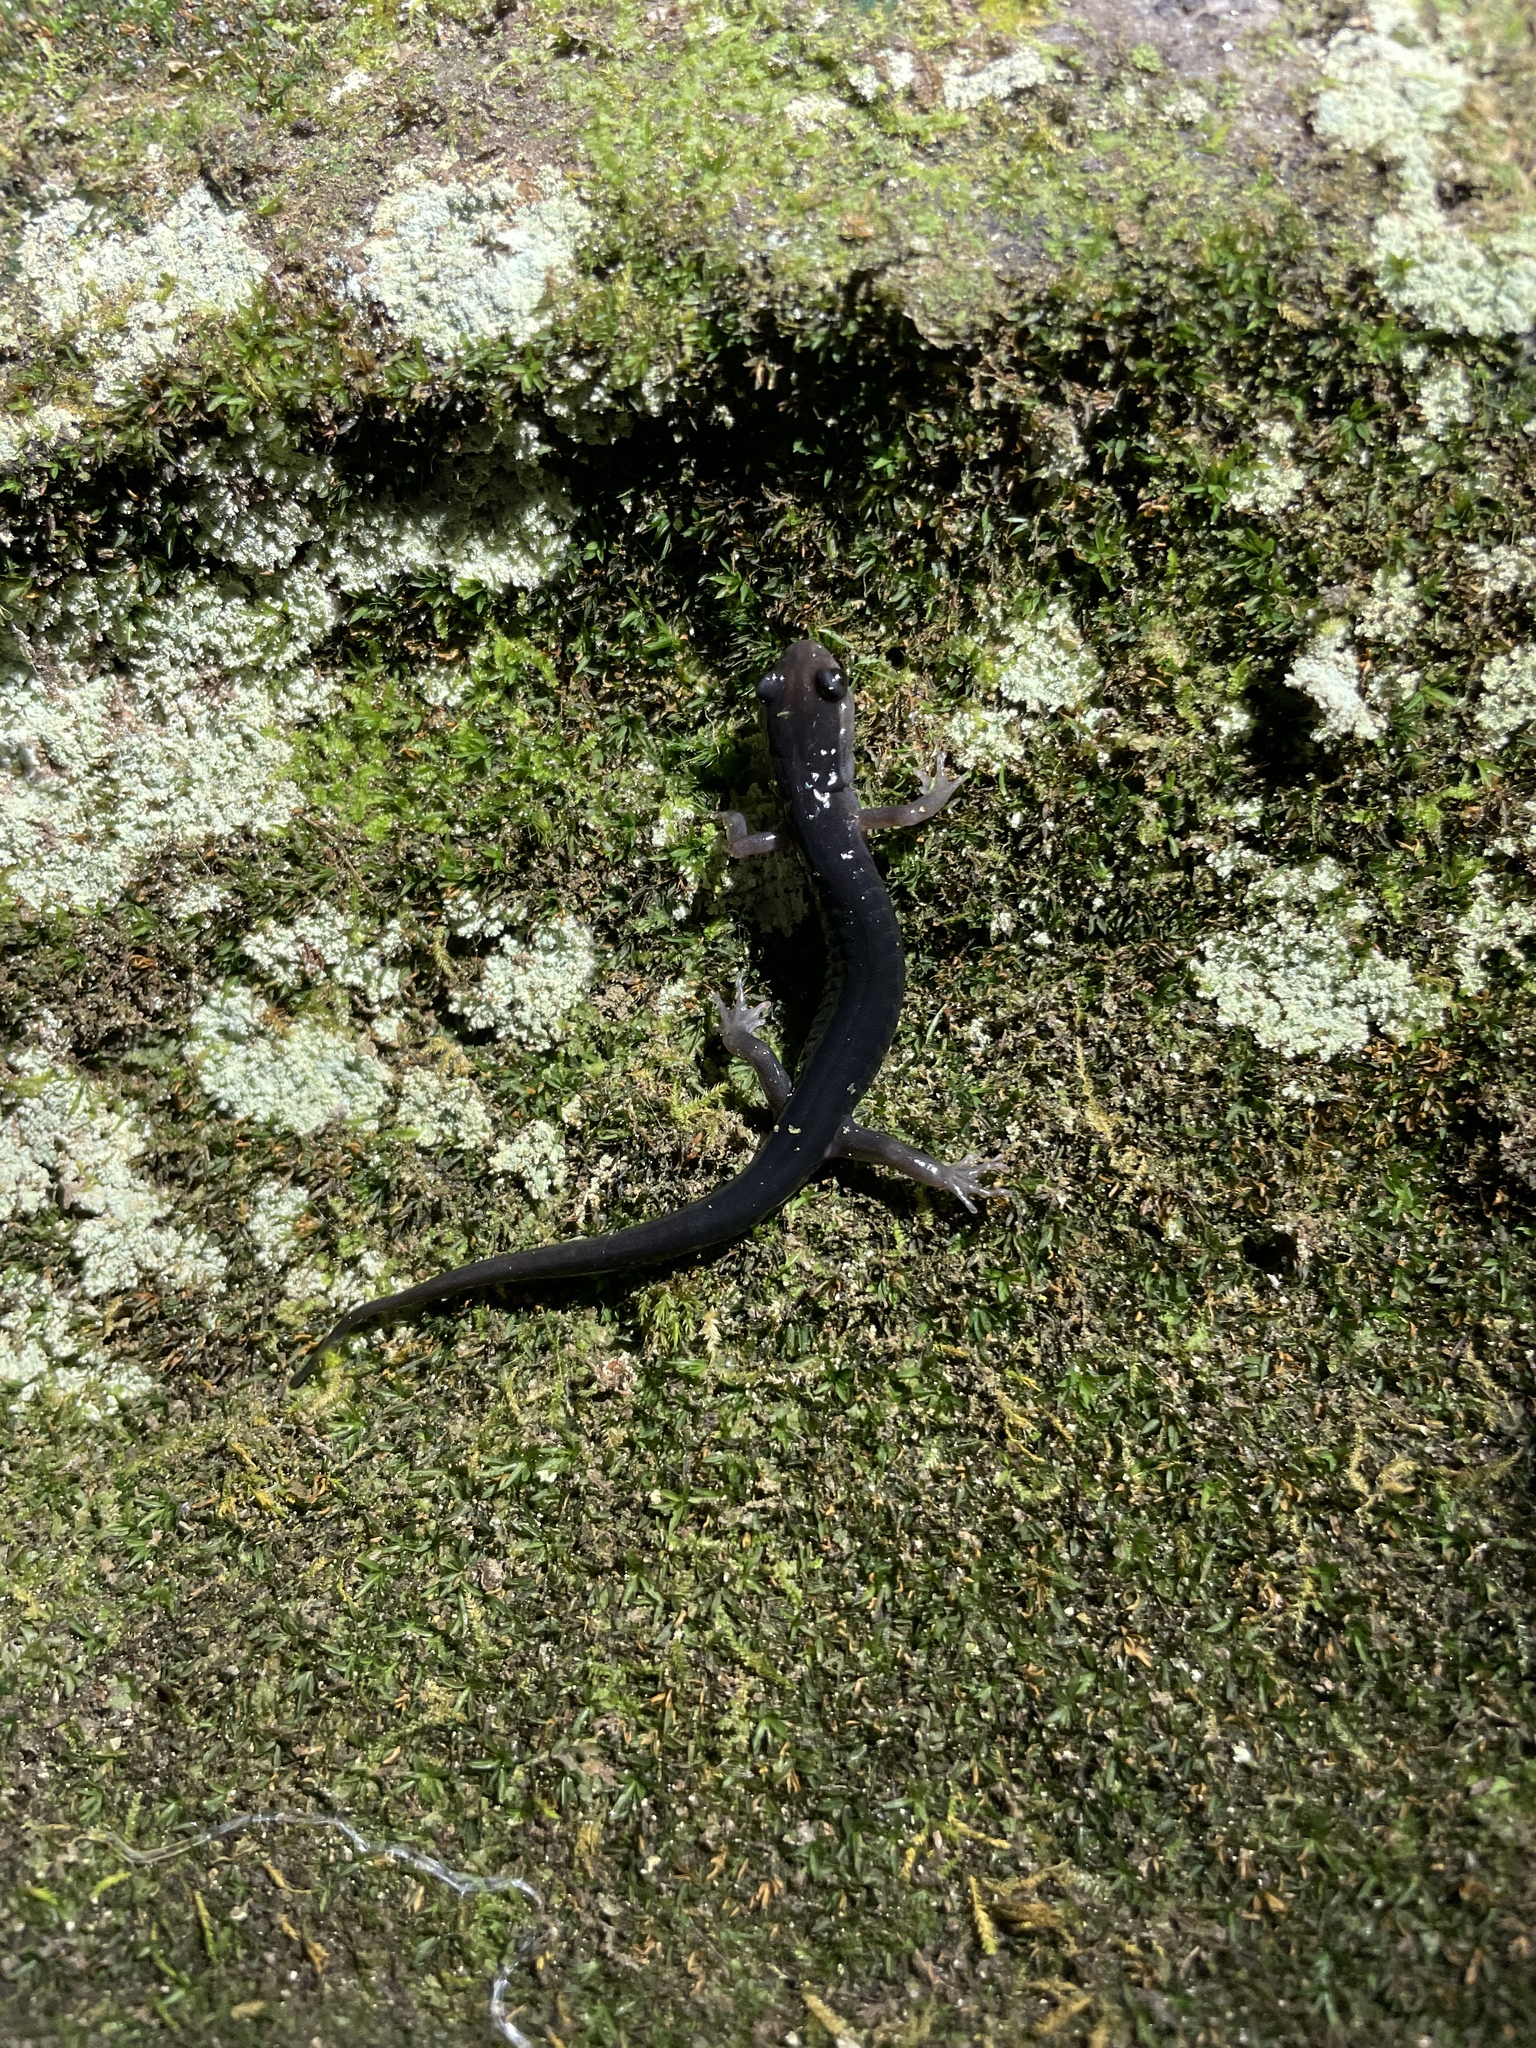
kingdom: Animalia
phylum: Chordata
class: Amphibia
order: Caudata
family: Plethodontidae
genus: Plethodon
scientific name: Plethodon amplus
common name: Blue ridge gray-cheeked salamander
